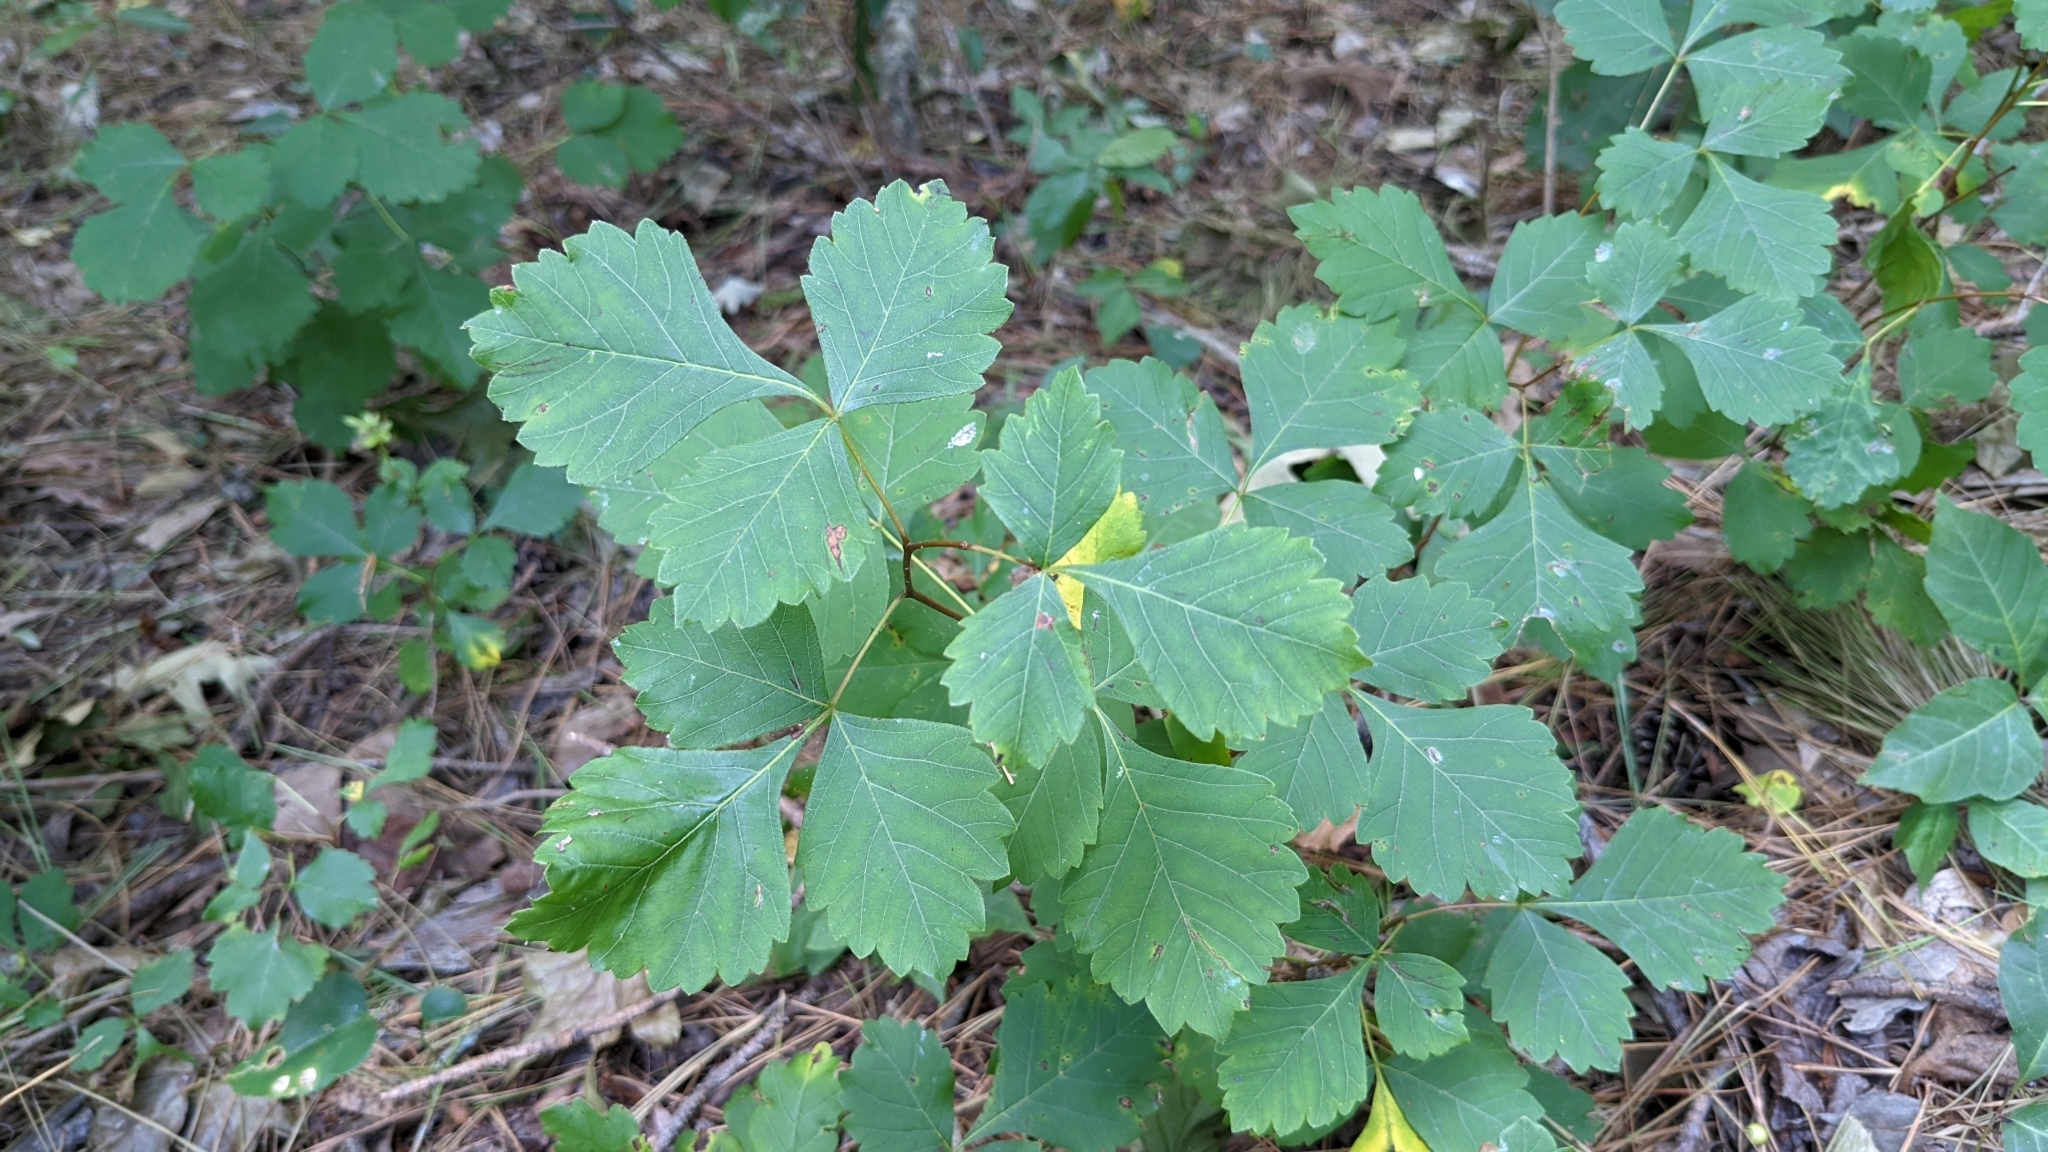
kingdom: Plantae
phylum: Tracheophyta
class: Magnoliopsida
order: Sapindales
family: Anacardiaceae
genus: Rhus
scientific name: Rhus aromatica
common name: Aromatic sumac
